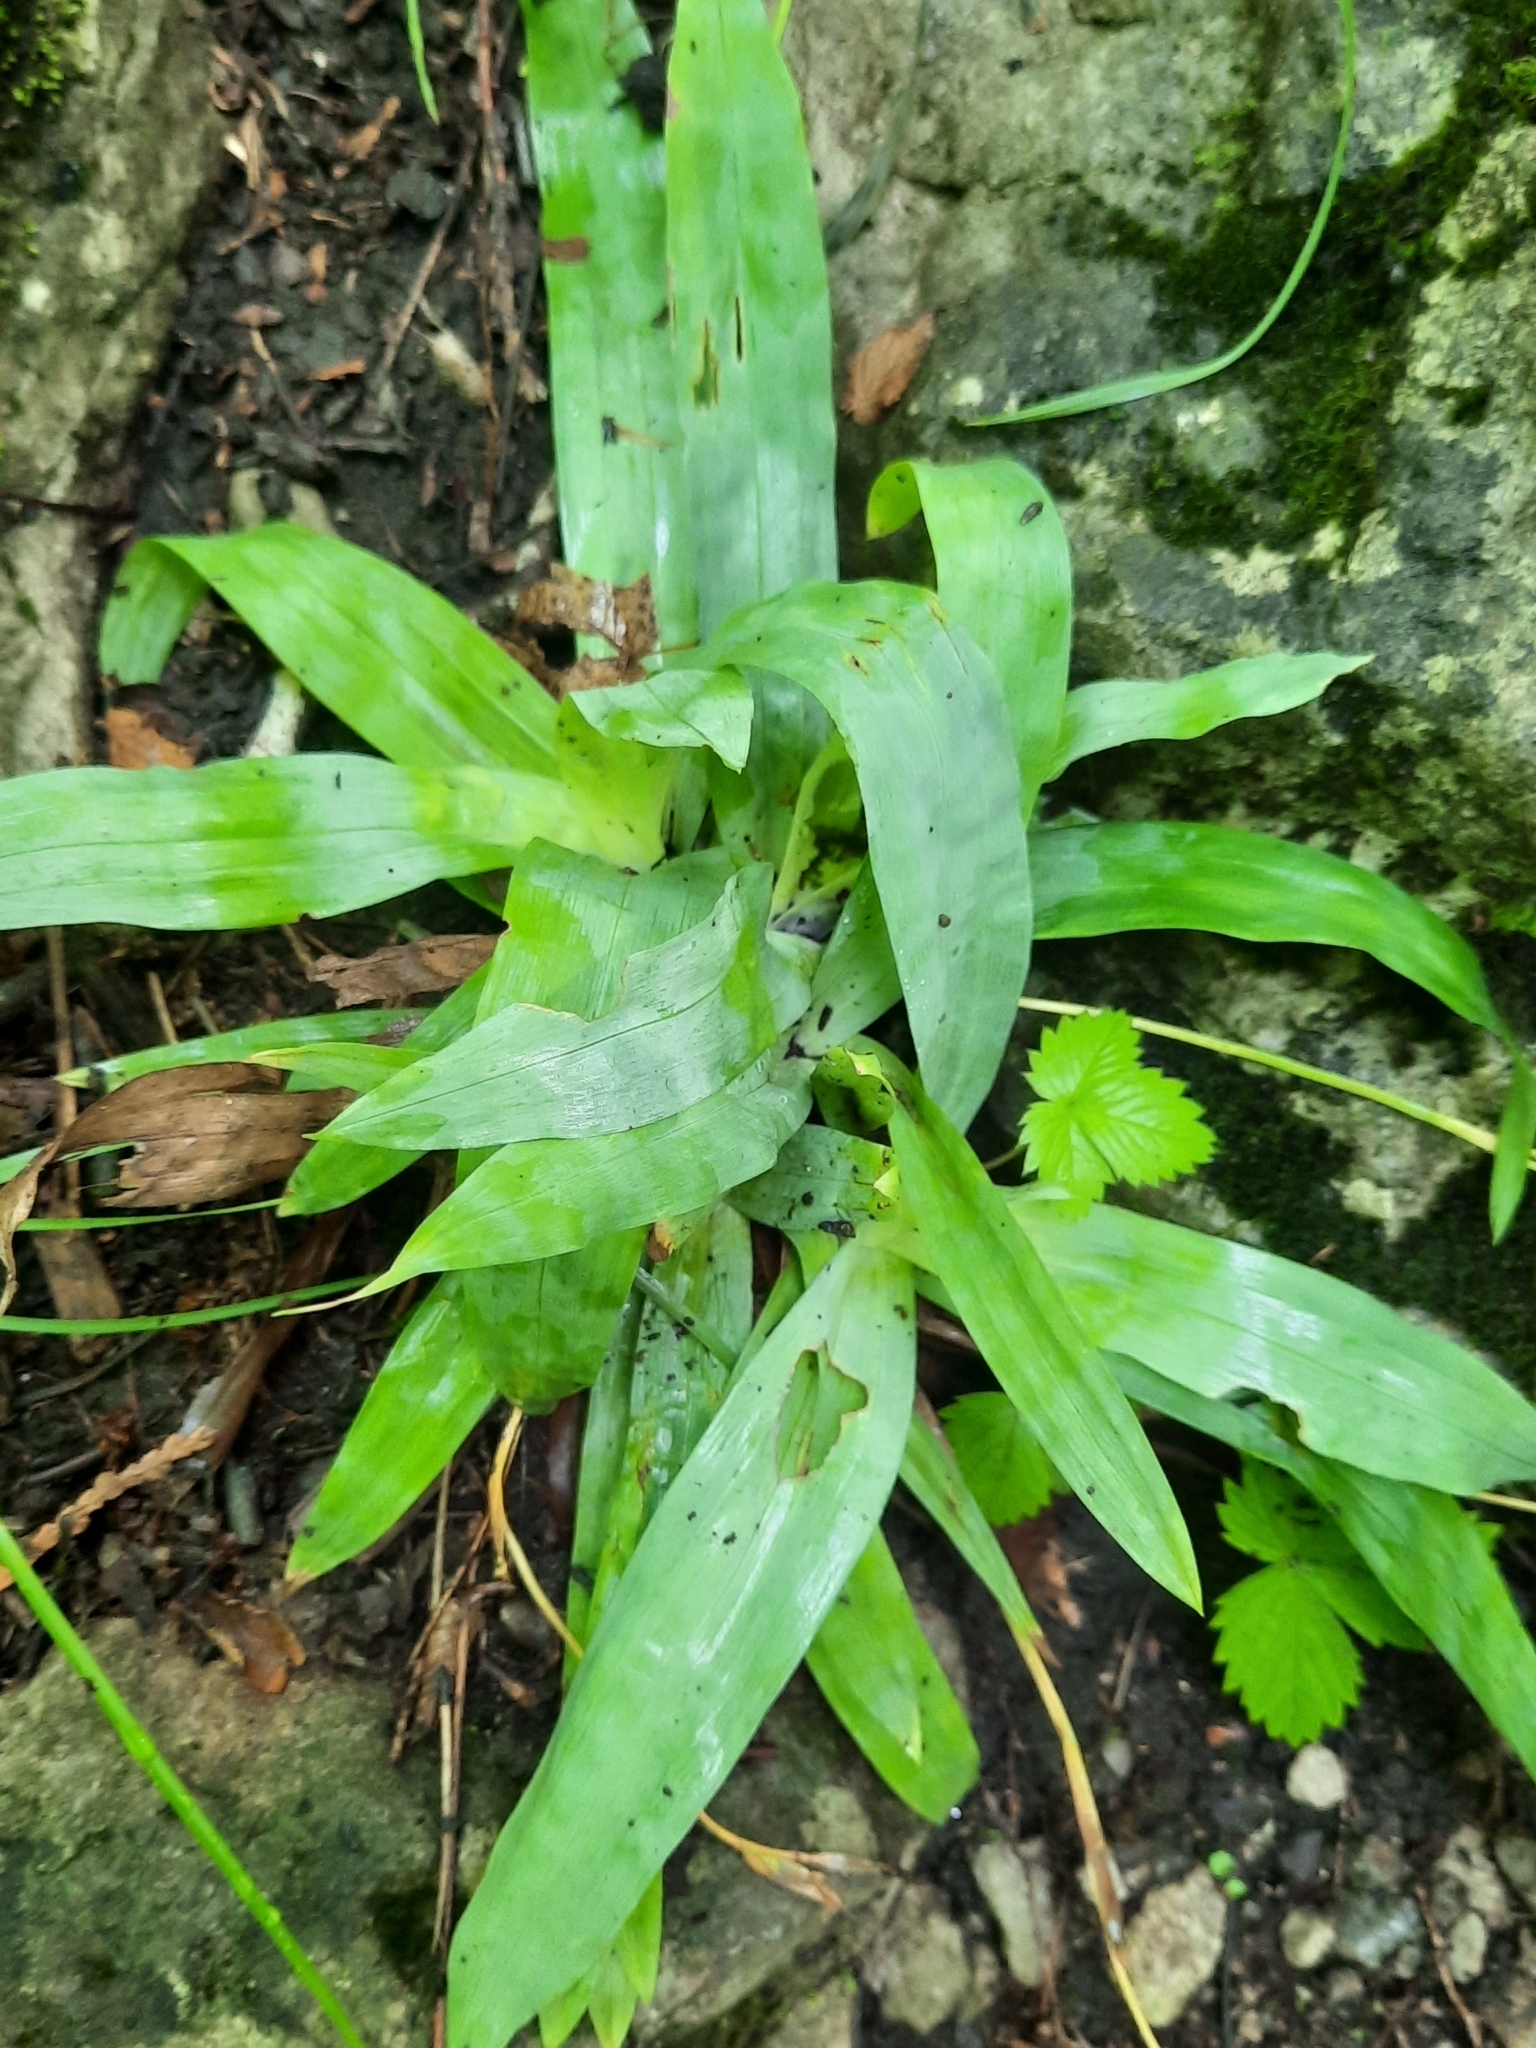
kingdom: Plantae
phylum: Tracheophyta
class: Liliopsida
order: Poales
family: Cyperaceae
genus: Carex
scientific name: Carex platyphylla
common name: Broad-leaved sedge
